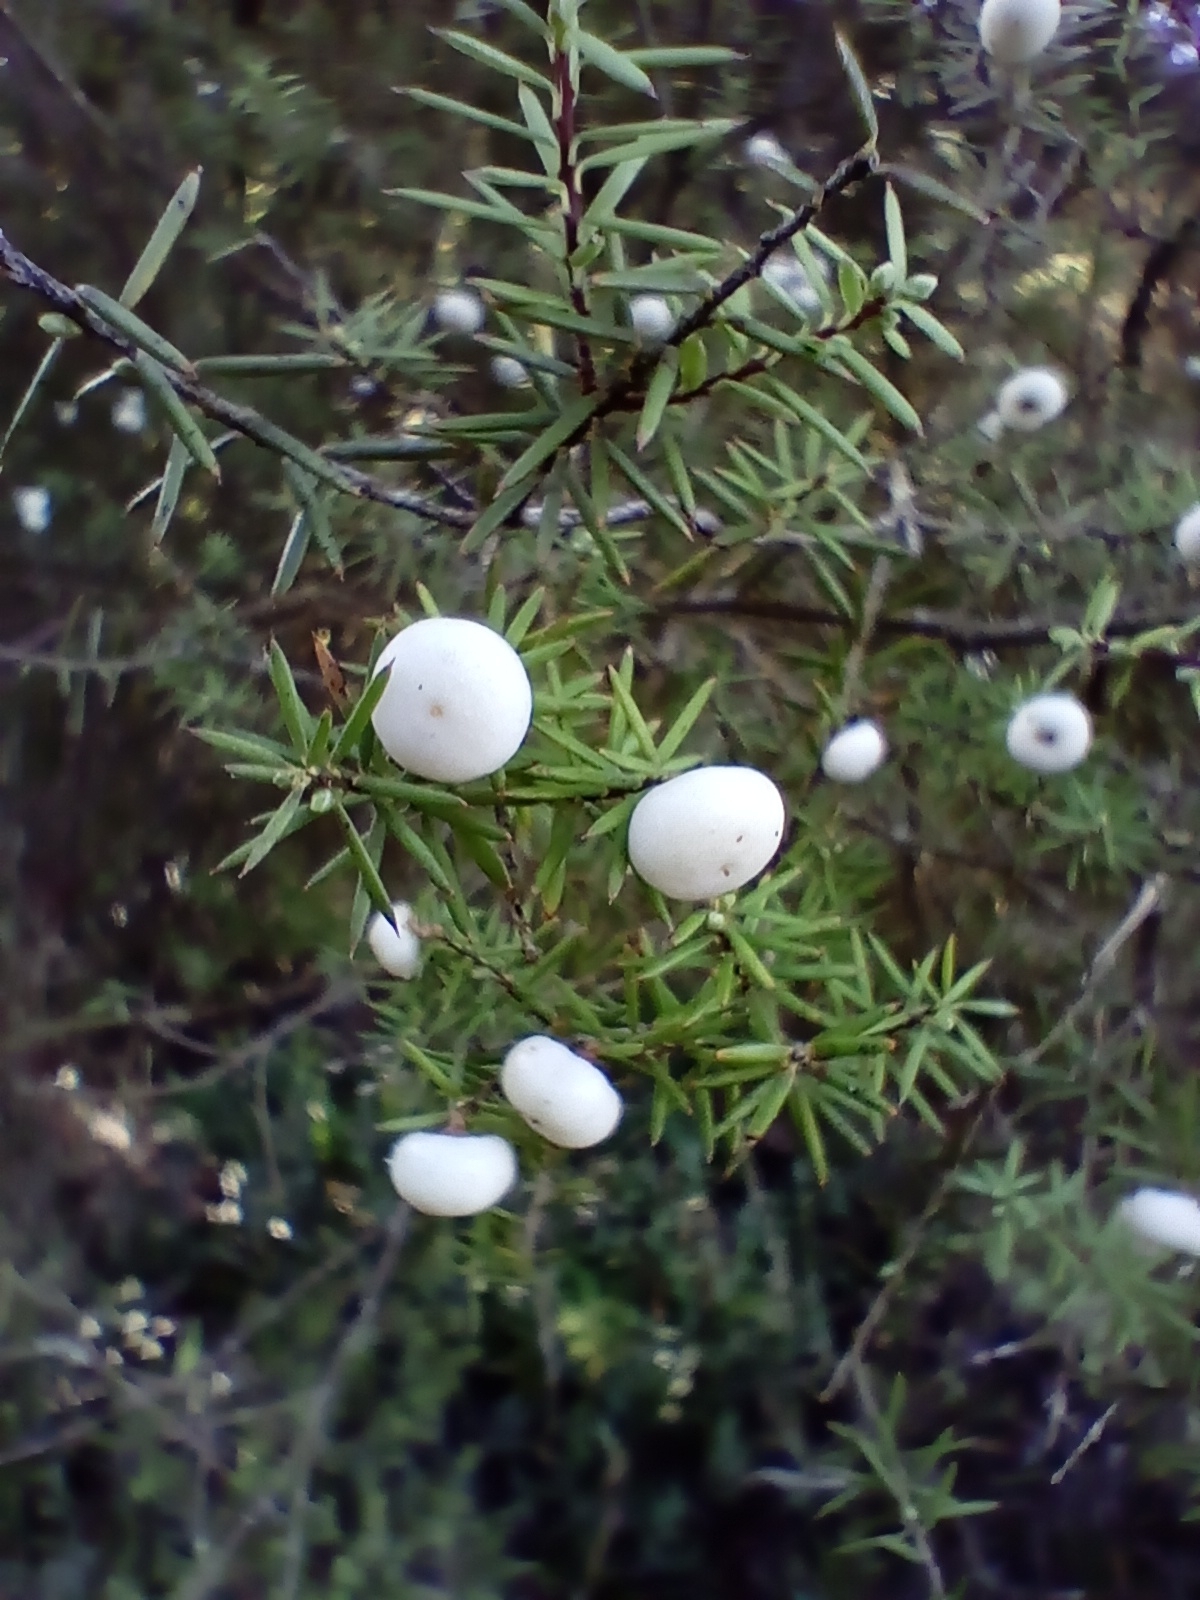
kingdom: Plantae
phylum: Tracheophyta
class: Magnoliopsida
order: Ericales
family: Ericaceae
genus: Leptecophylla
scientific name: Leptecophylla juniperina
